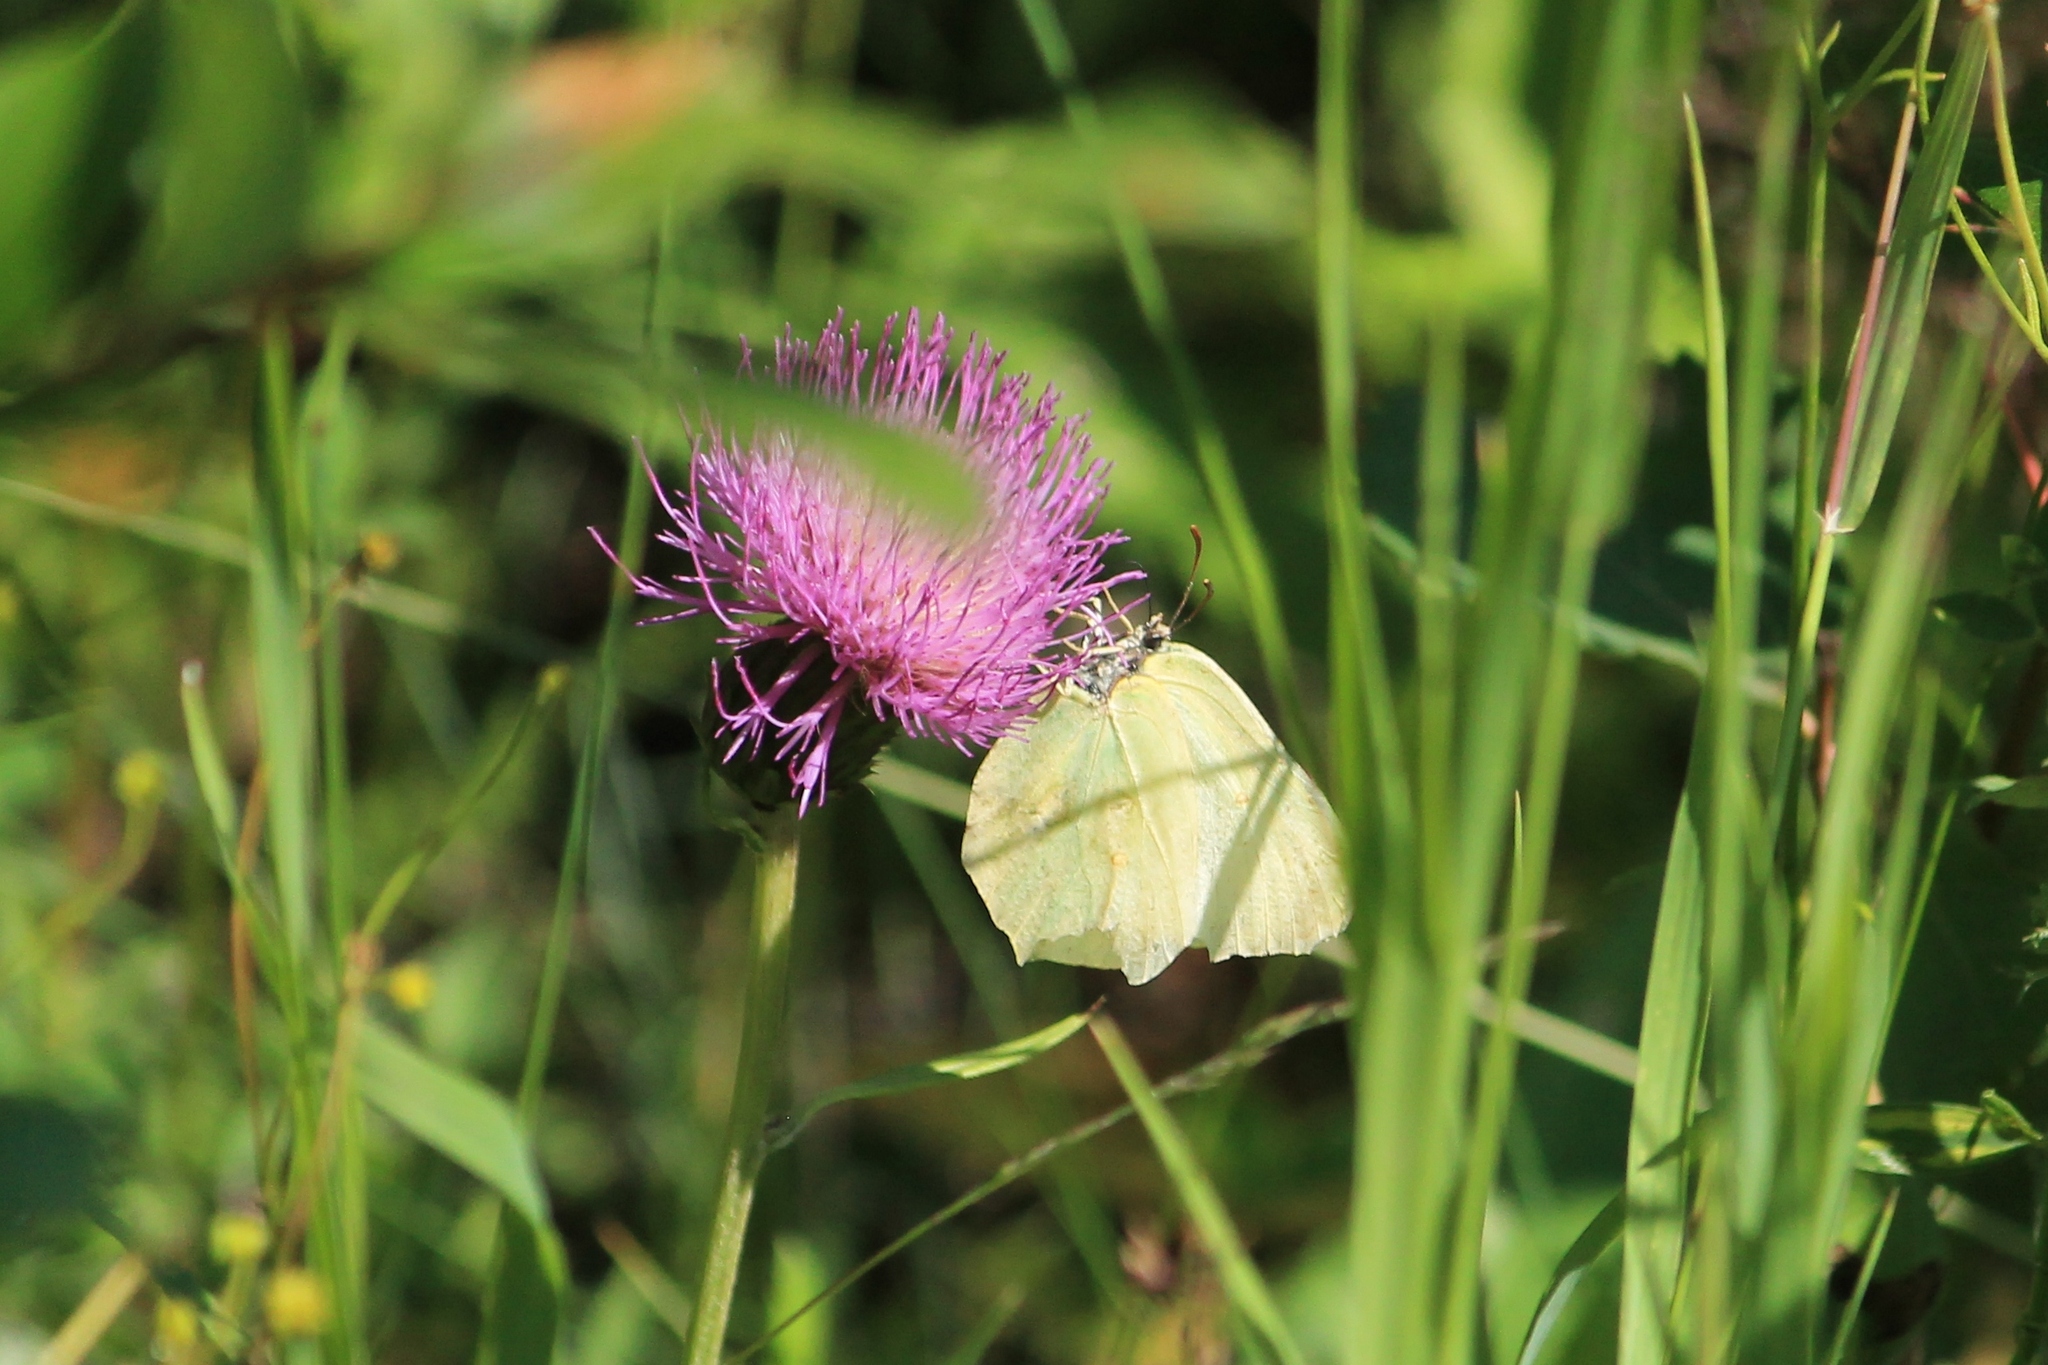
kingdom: Animalia
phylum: Arthropoda
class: Insecta
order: Lepidoptera
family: Pieridae
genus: Gonepteryx
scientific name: Gonepteryx rhamni
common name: Brimstone
